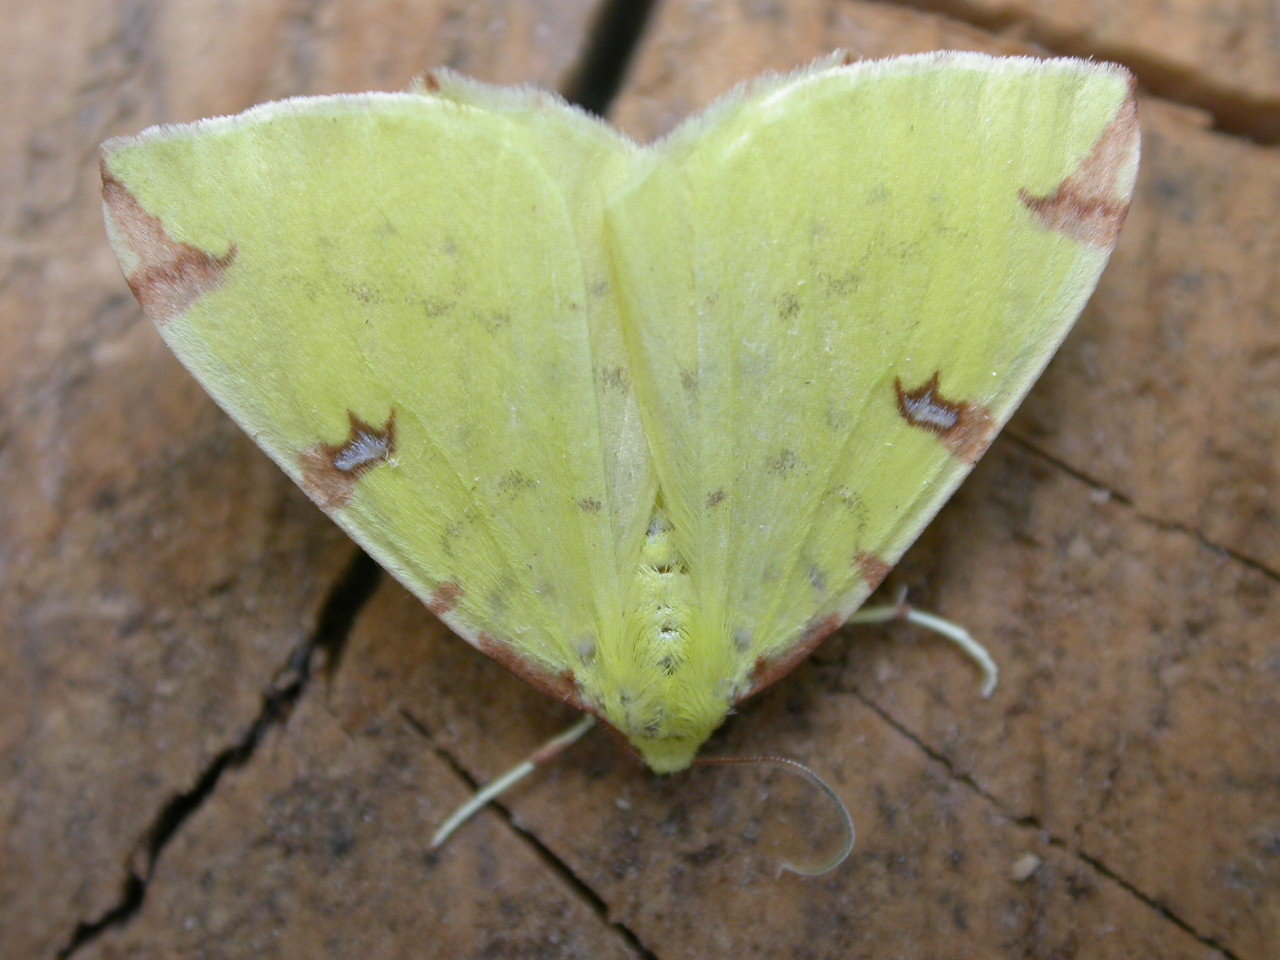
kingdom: Animalia
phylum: Arthropoda
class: Insecta
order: Lepidoptera
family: Geometridae
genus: Opisthograptis
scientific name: Opisthograptis luteolata
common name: Brimstone moth
